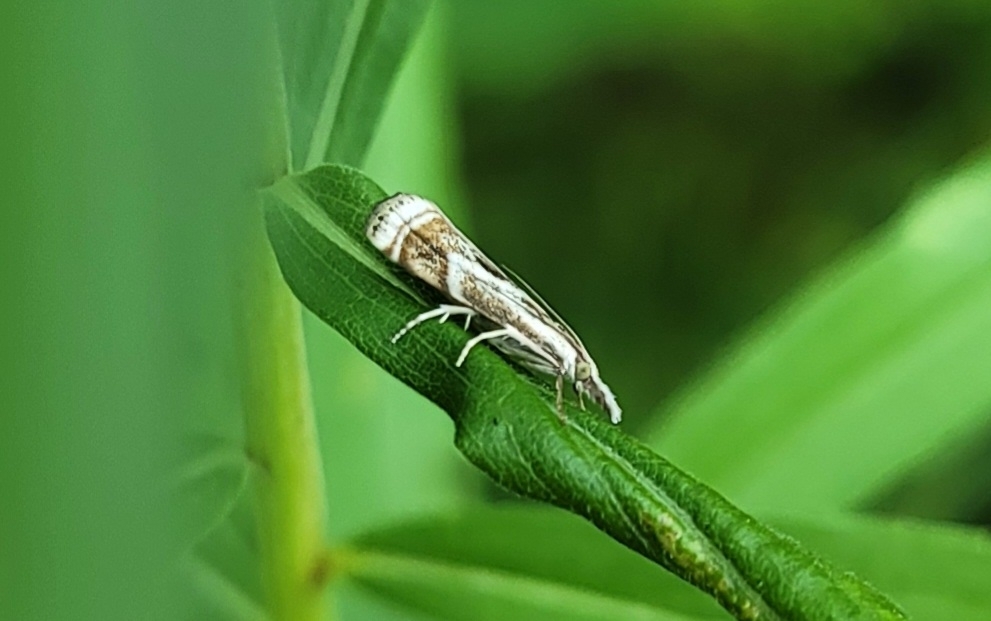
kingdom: Animalia
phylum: Arthropoda
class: Insecta
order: Lepidoptera
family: Crambidae
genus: Microcrambus
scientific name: Microcrambus elegans
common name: Elegant grass-veneer
